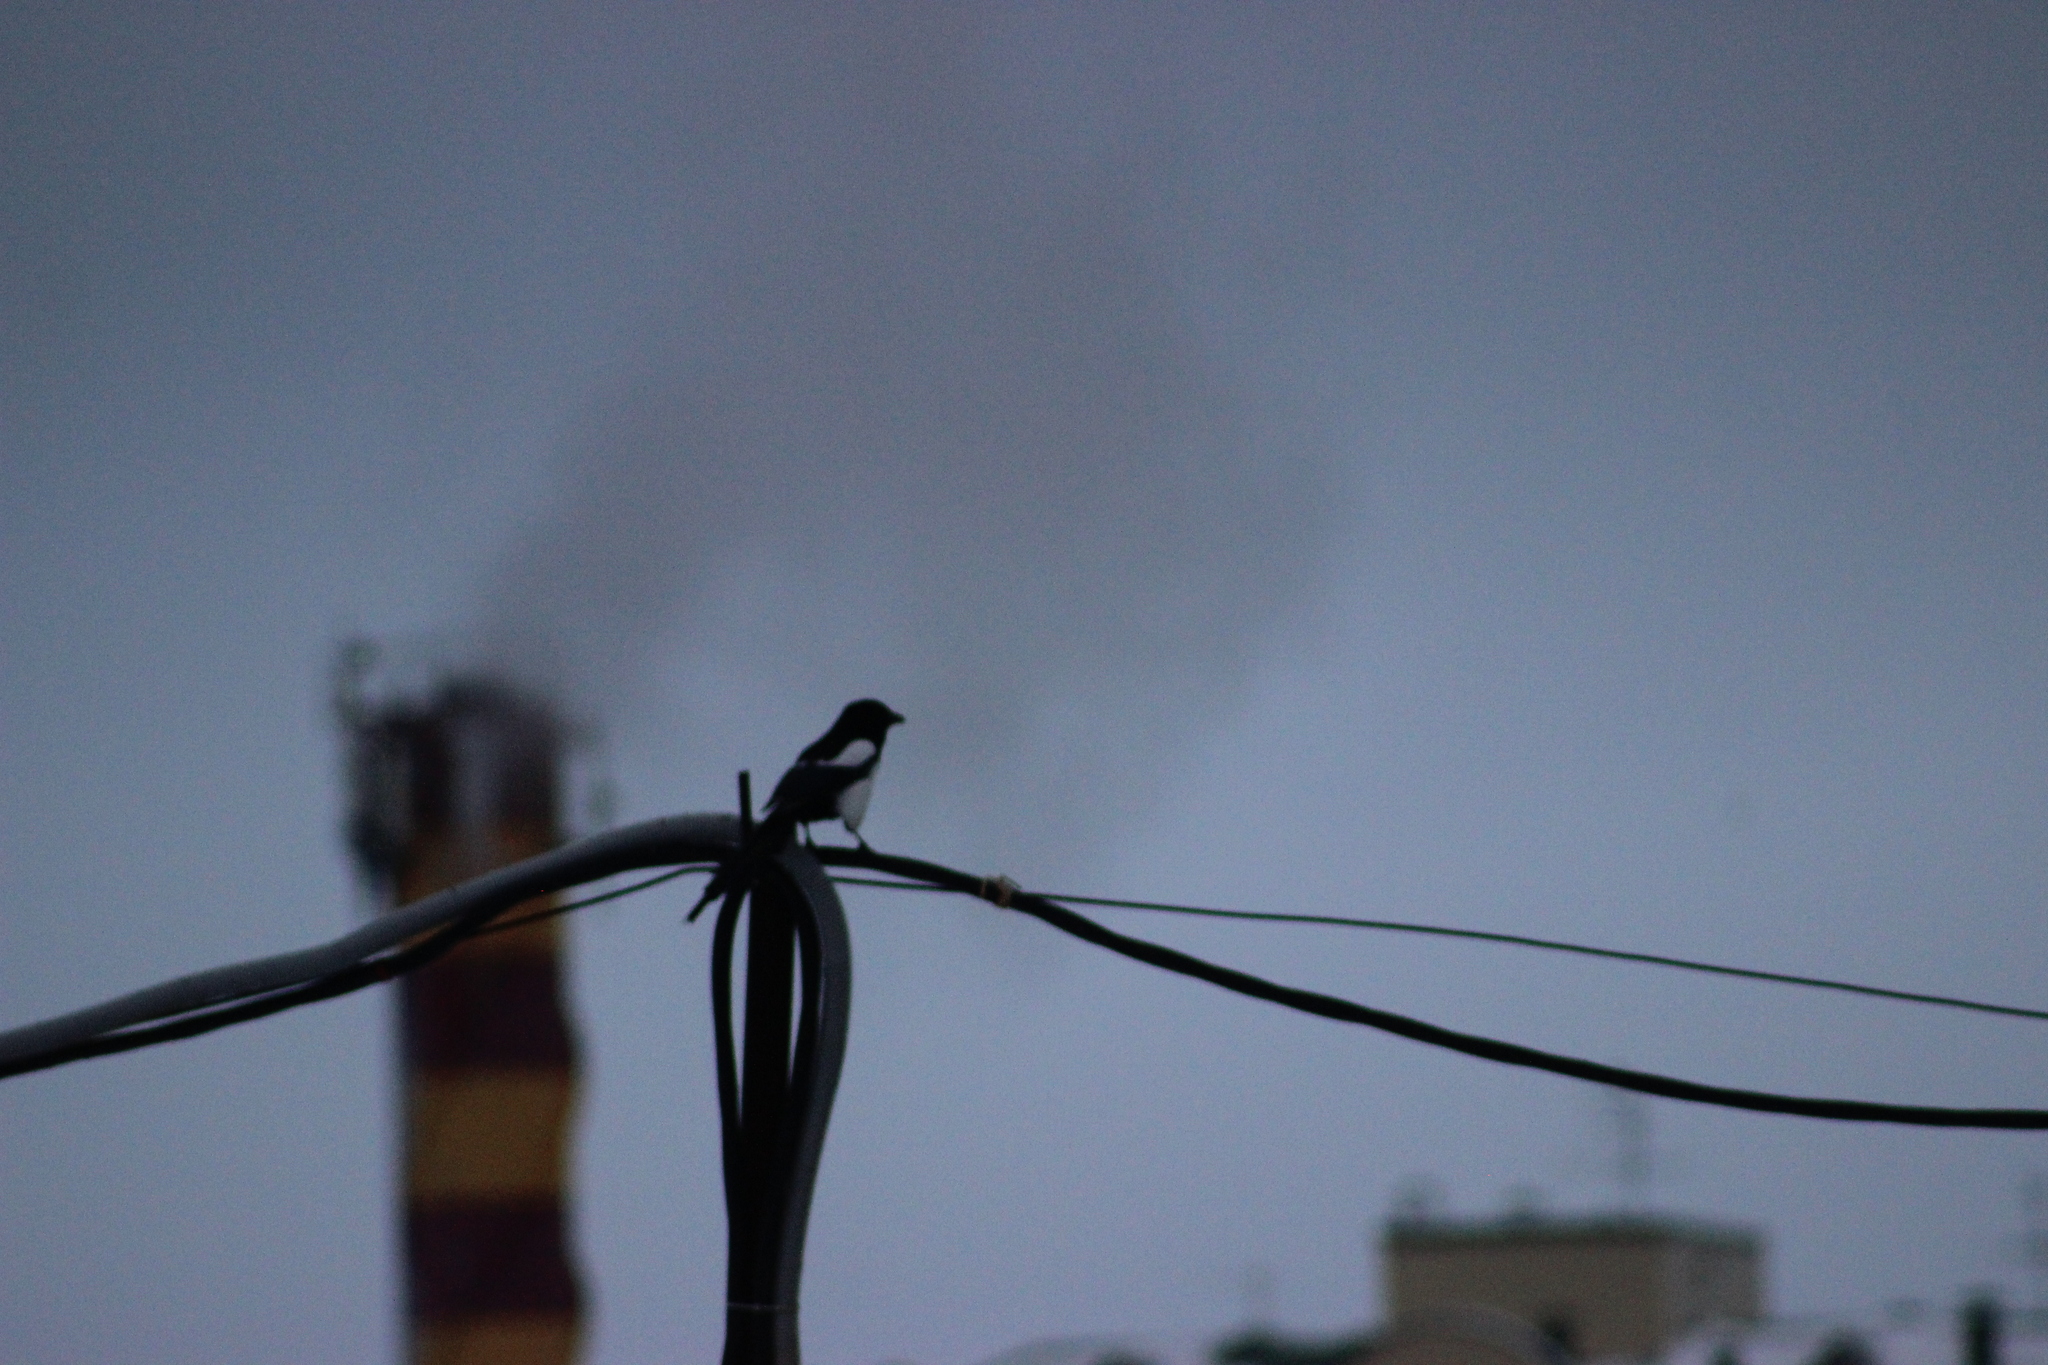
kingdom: Animalia
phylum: Chordata
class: Aves
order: Passeriformes
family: Corvidae
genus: Pica
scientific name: Pica pica
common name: Eurasian magpie
